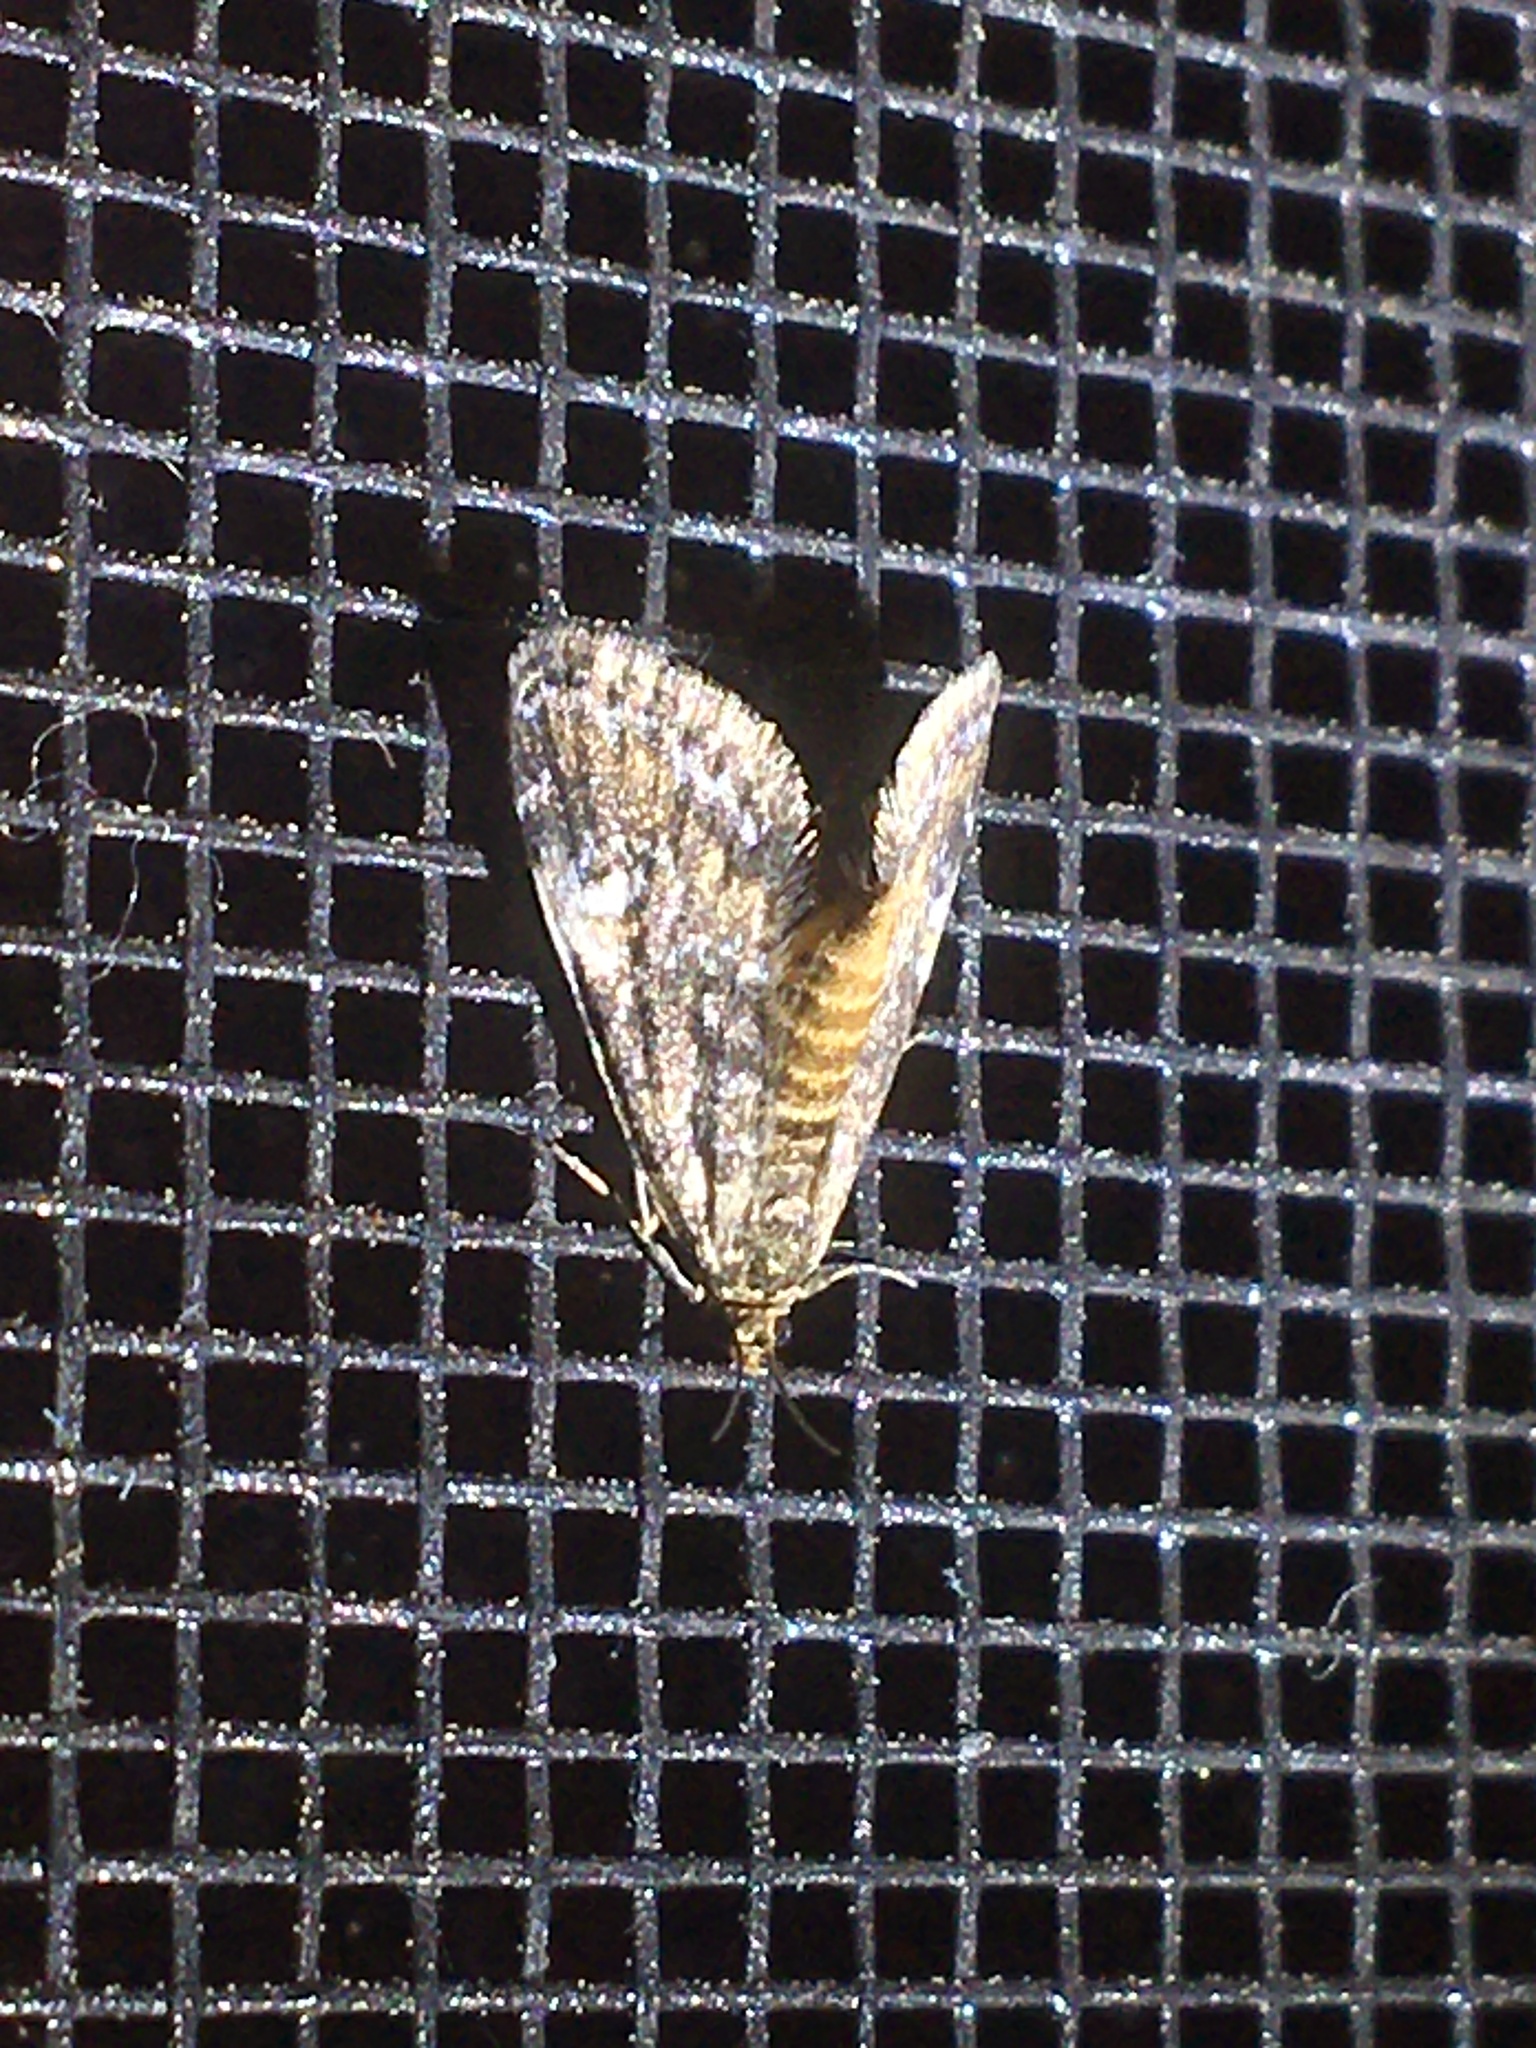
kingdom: Animalia
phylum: Arthropoda
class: Insecta
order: Lepidoptera
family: Crambidae
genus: Elophila
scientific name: Elophila obliteralis
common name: Waterlily leafcutter moth
